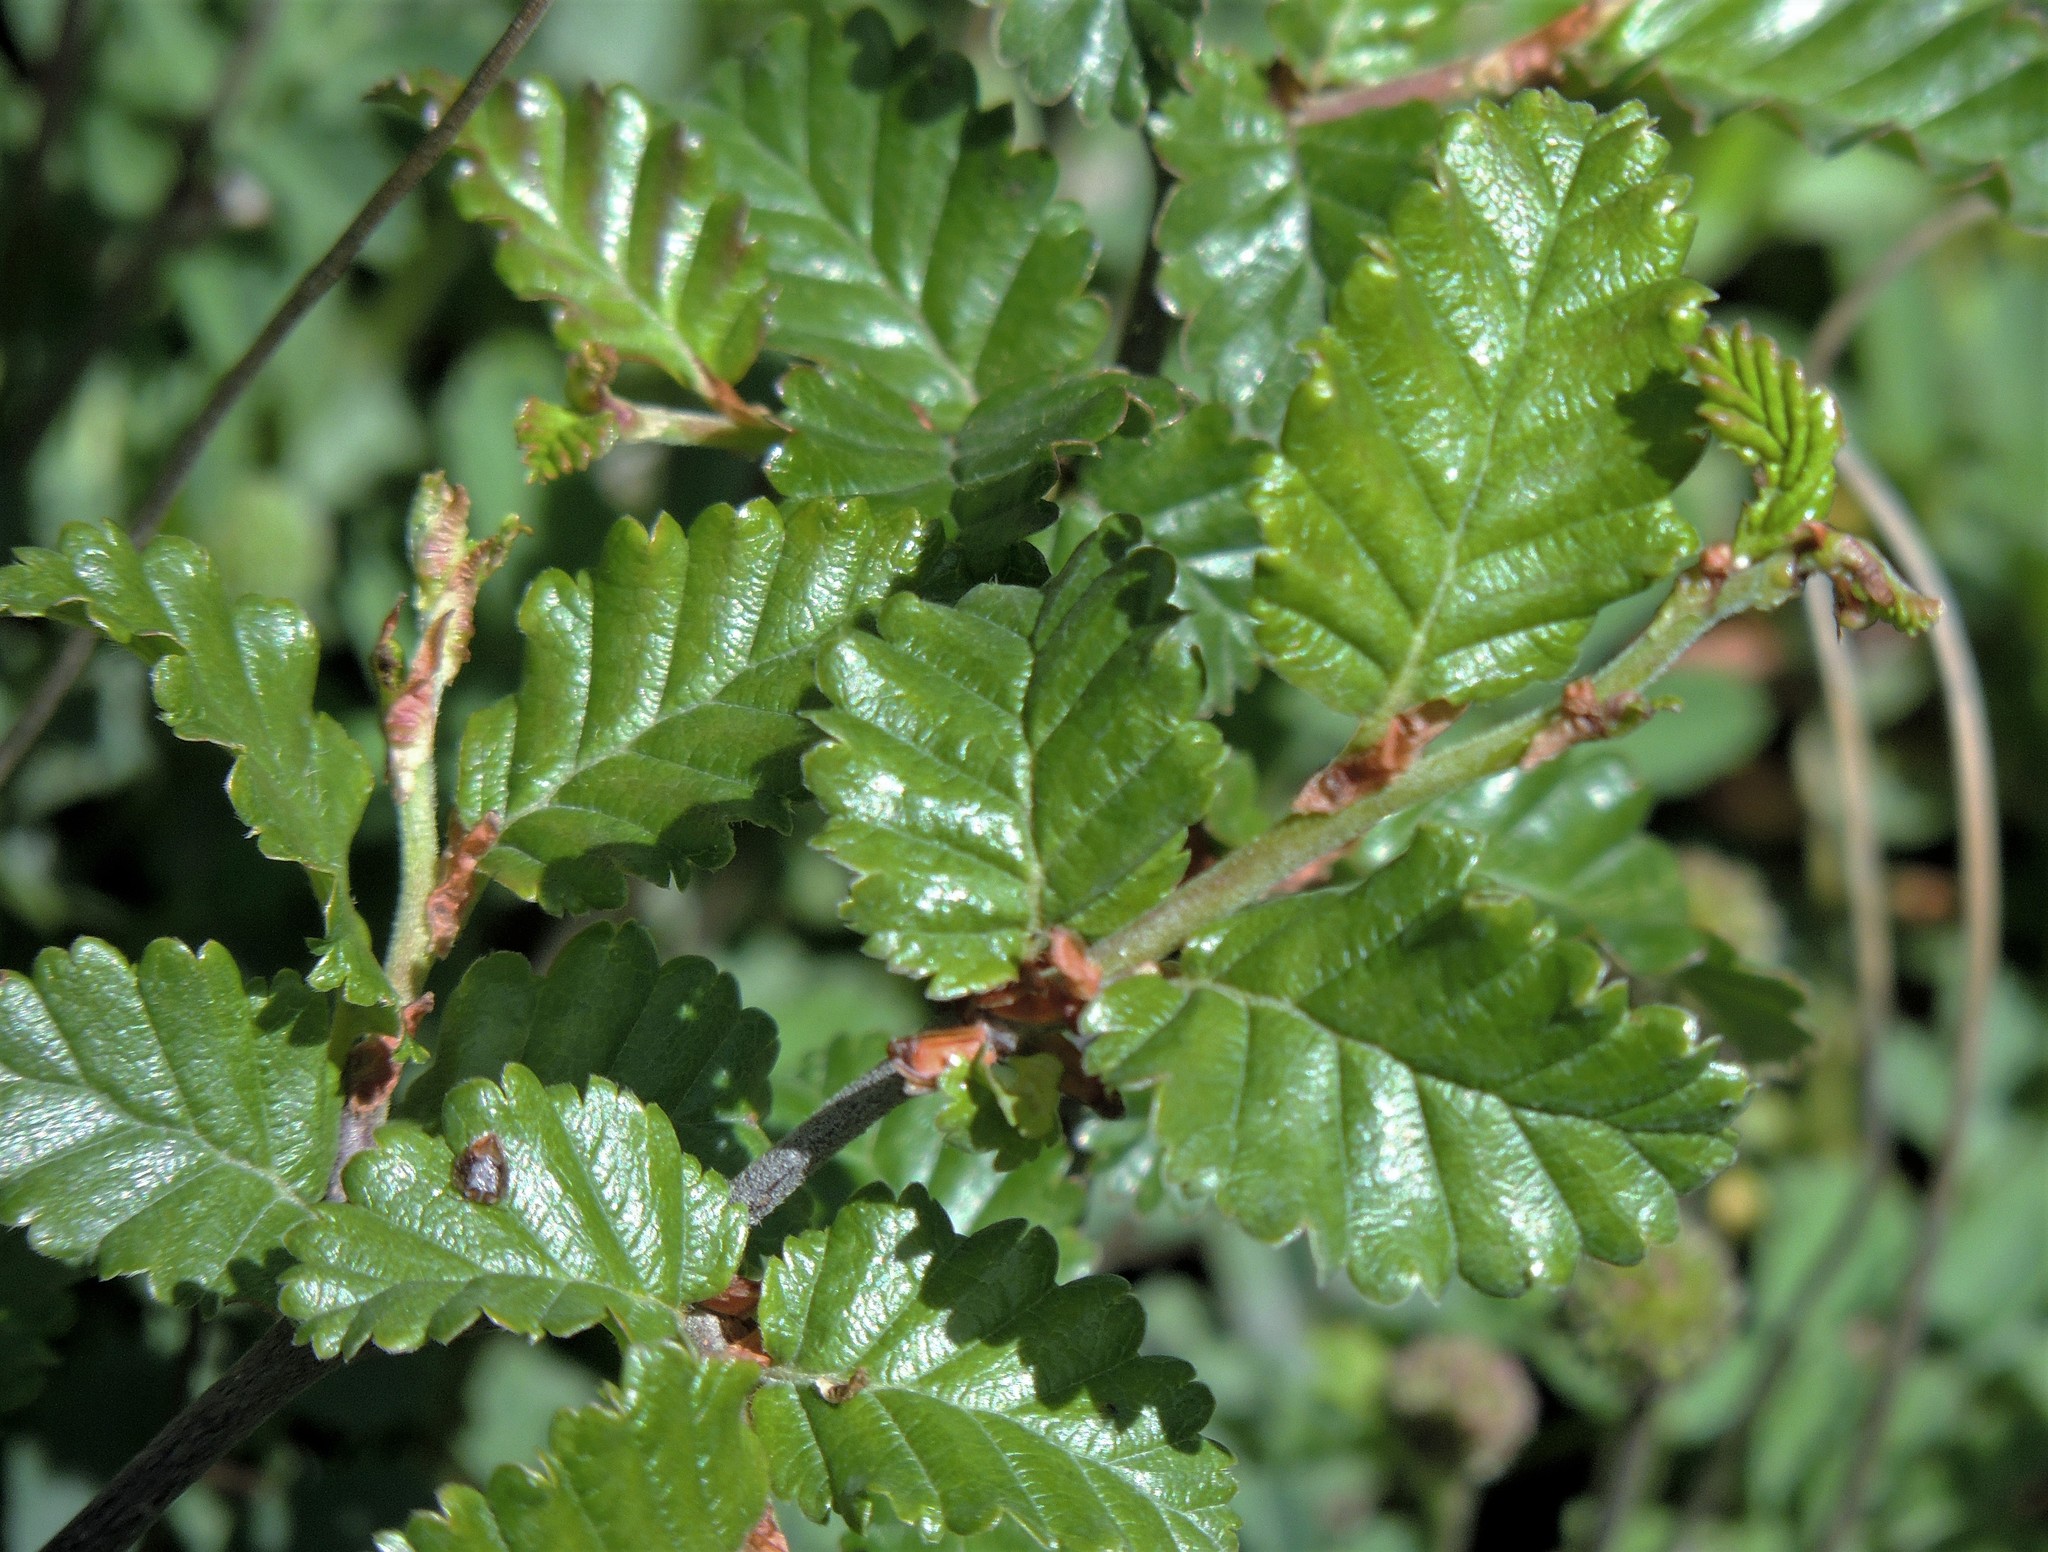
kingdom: Plantae
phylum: Tracheophyta
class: Magnoliopsida
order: Fagales
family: Nothofagaceae
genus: Nothofagus
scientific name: Nothofagus pumilio
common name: Lenga beech
